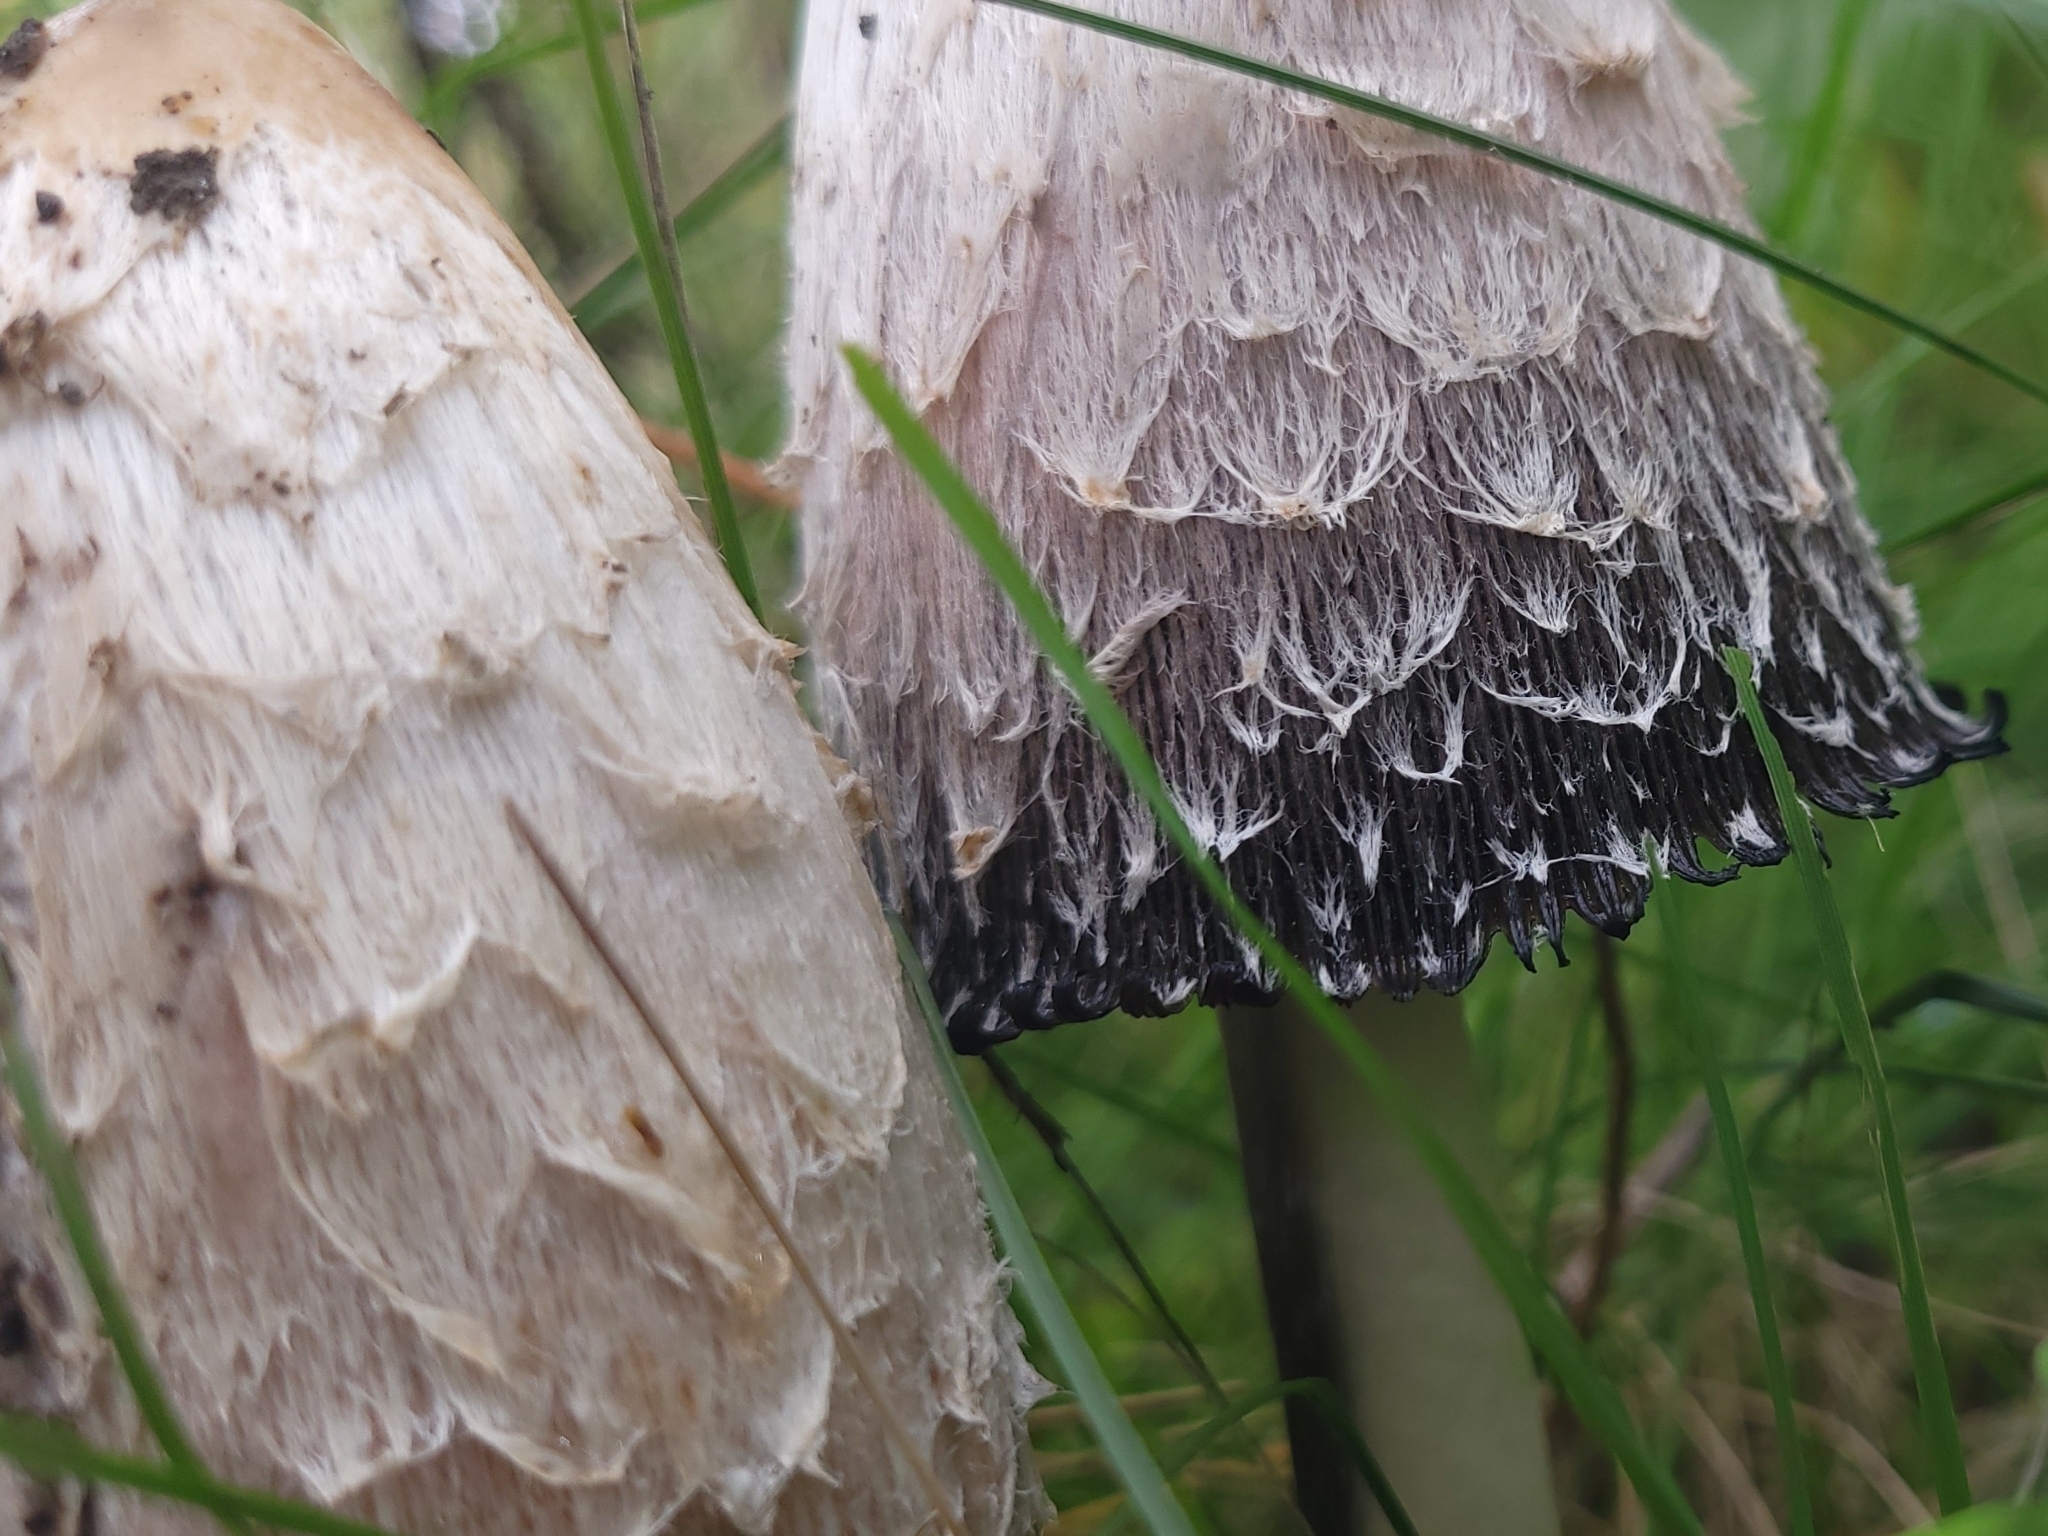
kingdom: Fungi
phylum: Basidiomycota
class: Agaricomycetes
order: Agaricales
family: Agaricaceae
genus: Coprinus
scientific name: Coprinus comatus
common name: Lawyer's wig
